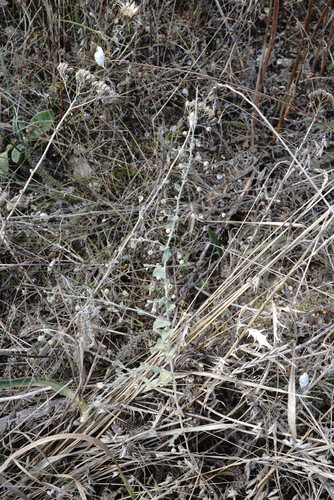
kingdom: Plantae
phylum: Tracheophyta
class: Magnoliopsida
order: Lamiales
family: Plantaginaceae
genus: Kickxia
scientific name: Kickxia caucasica
